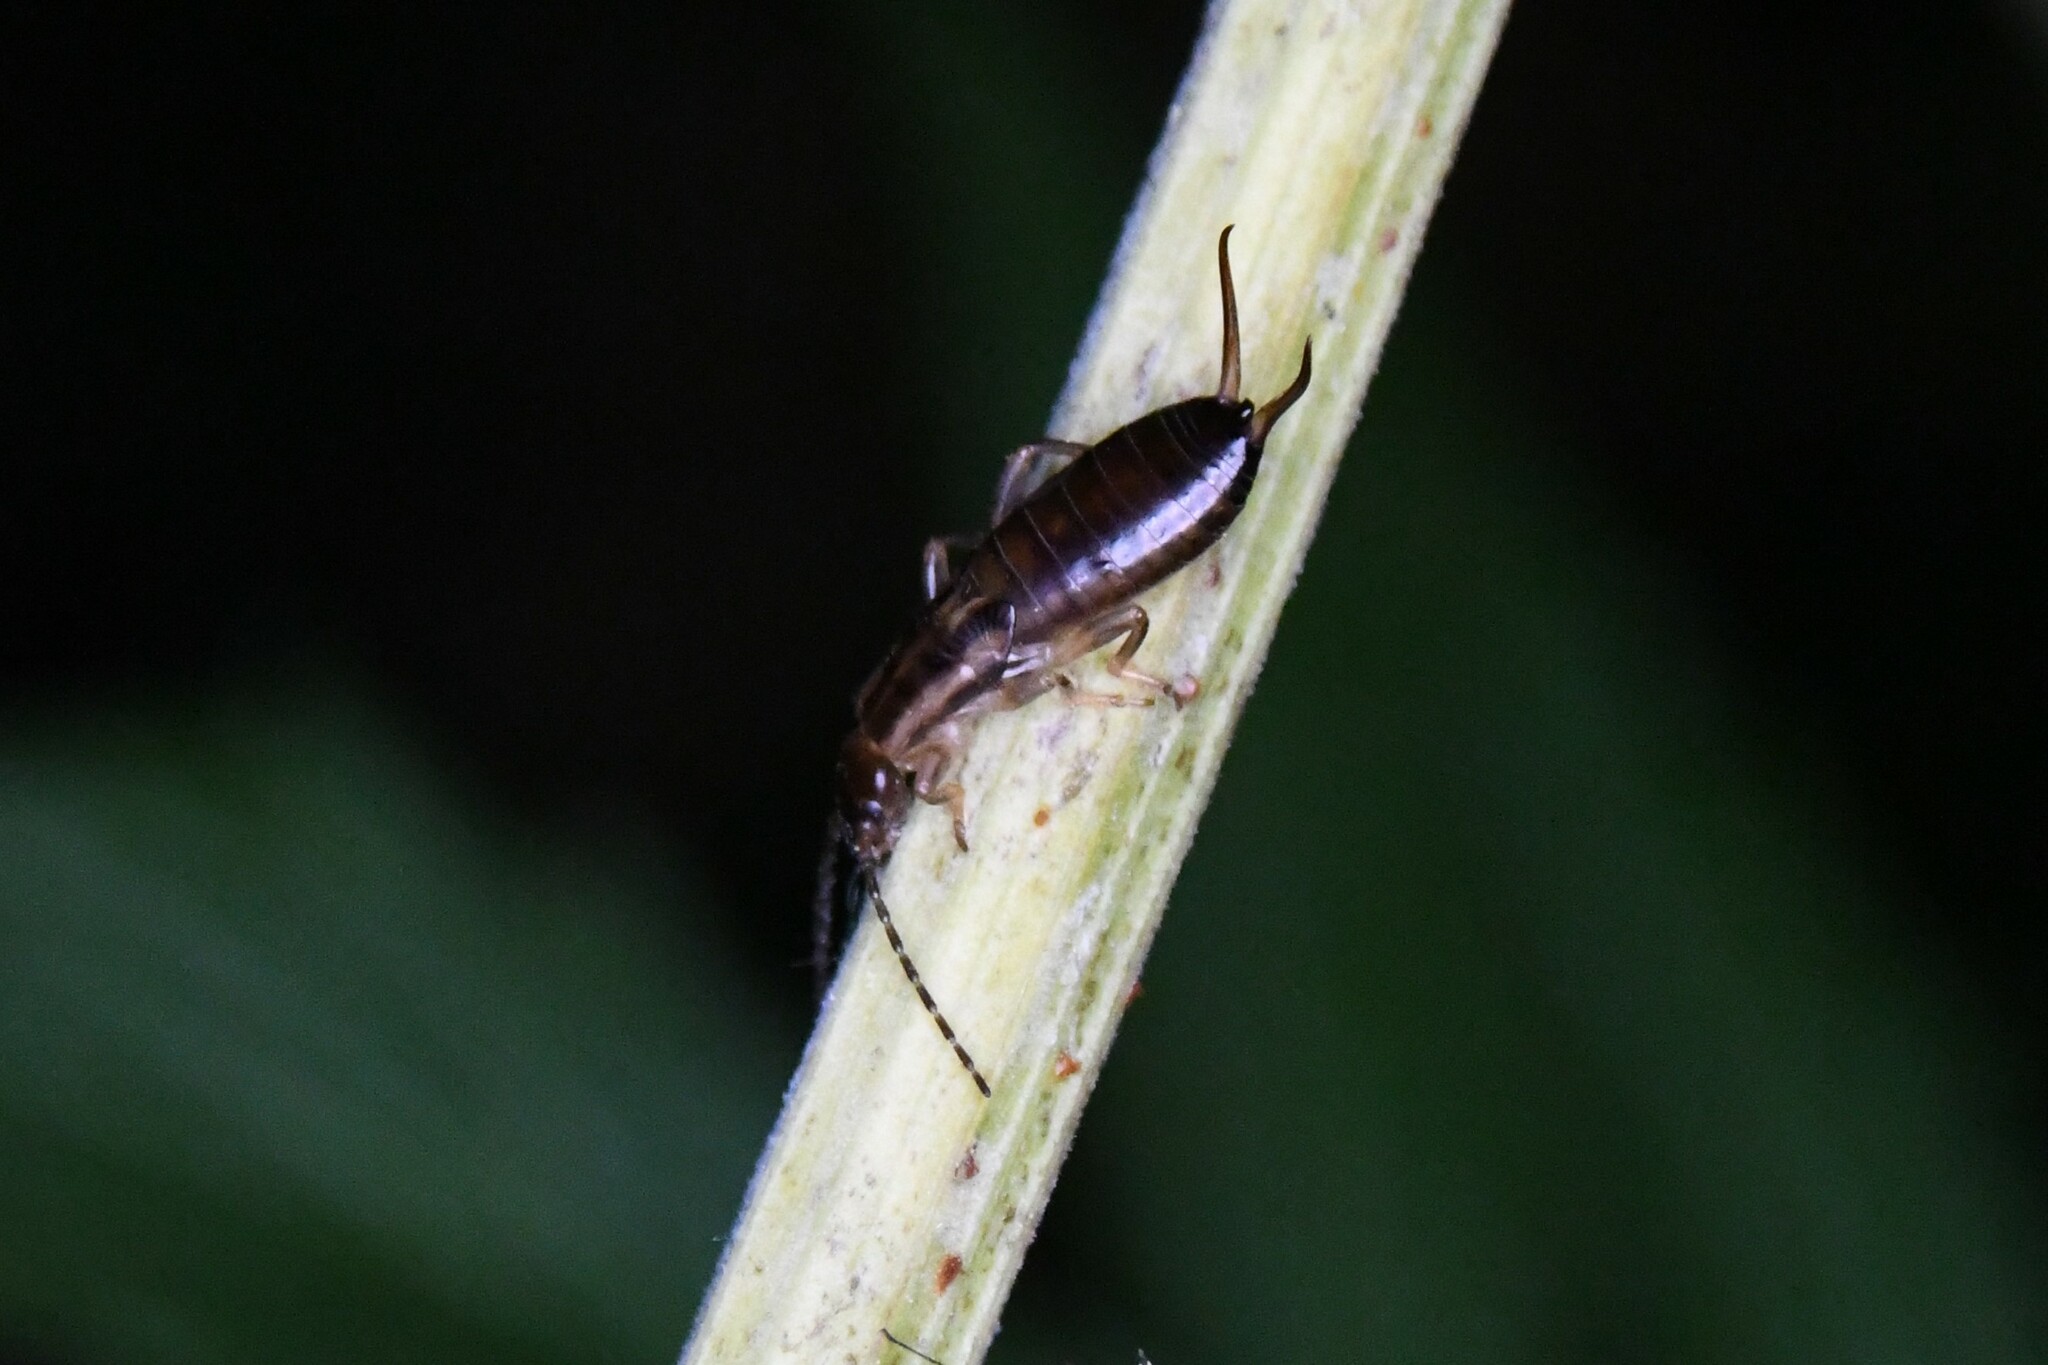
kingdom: Animalia
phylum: Arthropoda
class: Insecta
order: Dermaptera
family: Forficulidae
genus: Forficula
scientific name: Forficula
